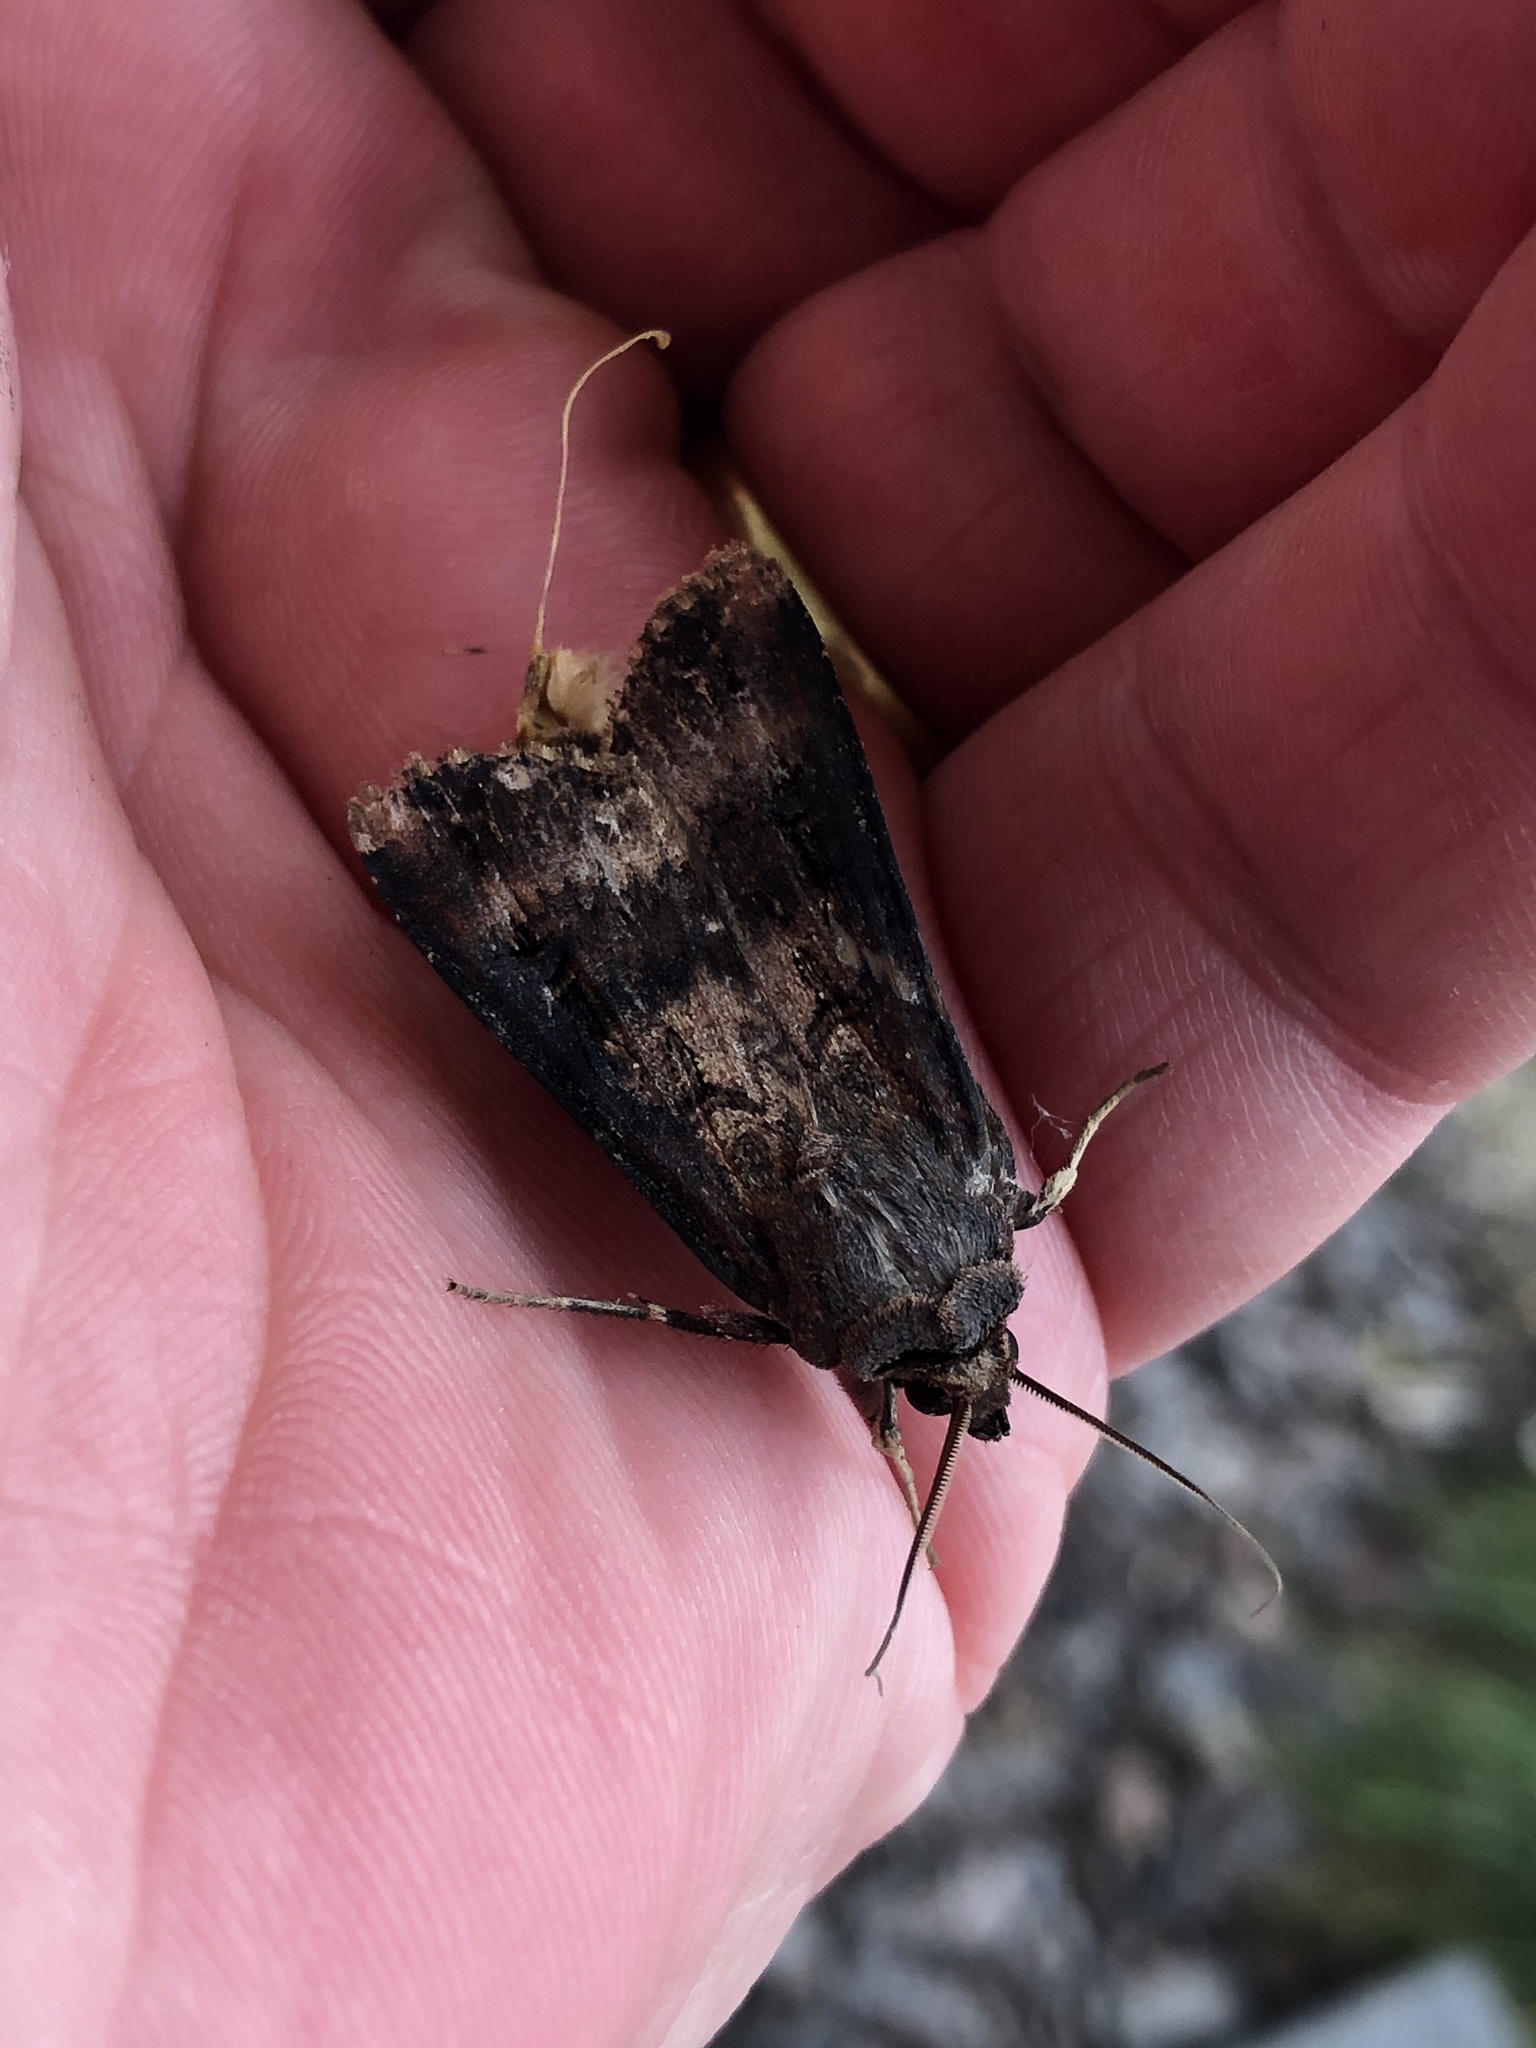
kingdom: Animalia
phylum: Arthropoda
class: Insecta
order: Lepidoptera
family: Noctuidae
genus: Agrotis
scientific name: Agrotis ipsilon
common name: Dark sword-grass
